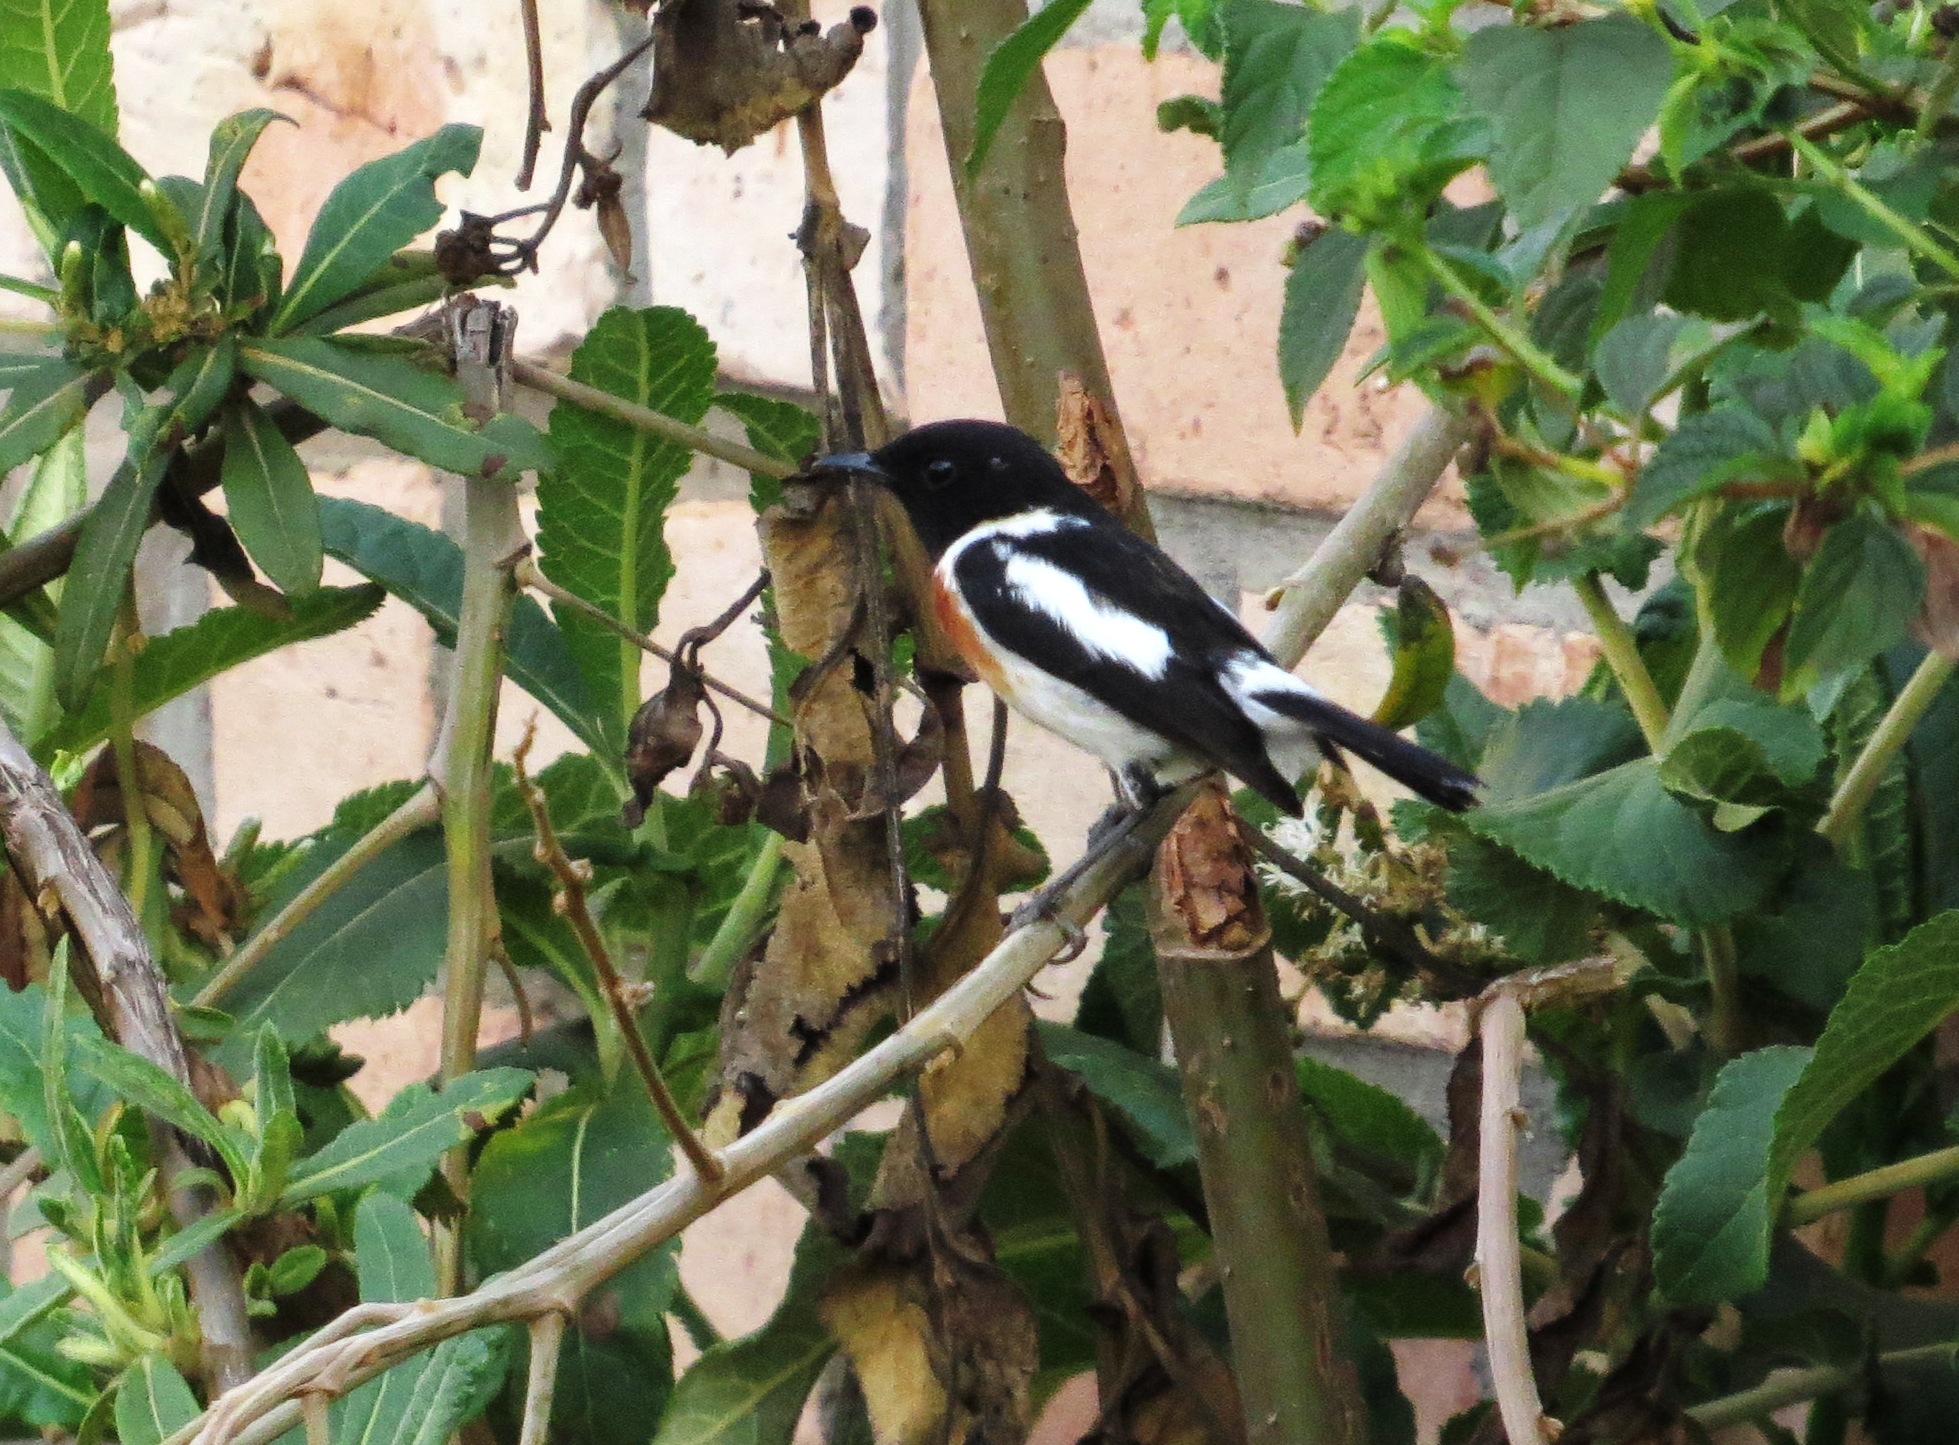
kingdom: Animalia
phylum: Chordata
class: Aves
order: Passeriformes
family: Muscicapidae
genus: Saxicola
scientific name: Saxicola torquatus
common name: African stonechat
